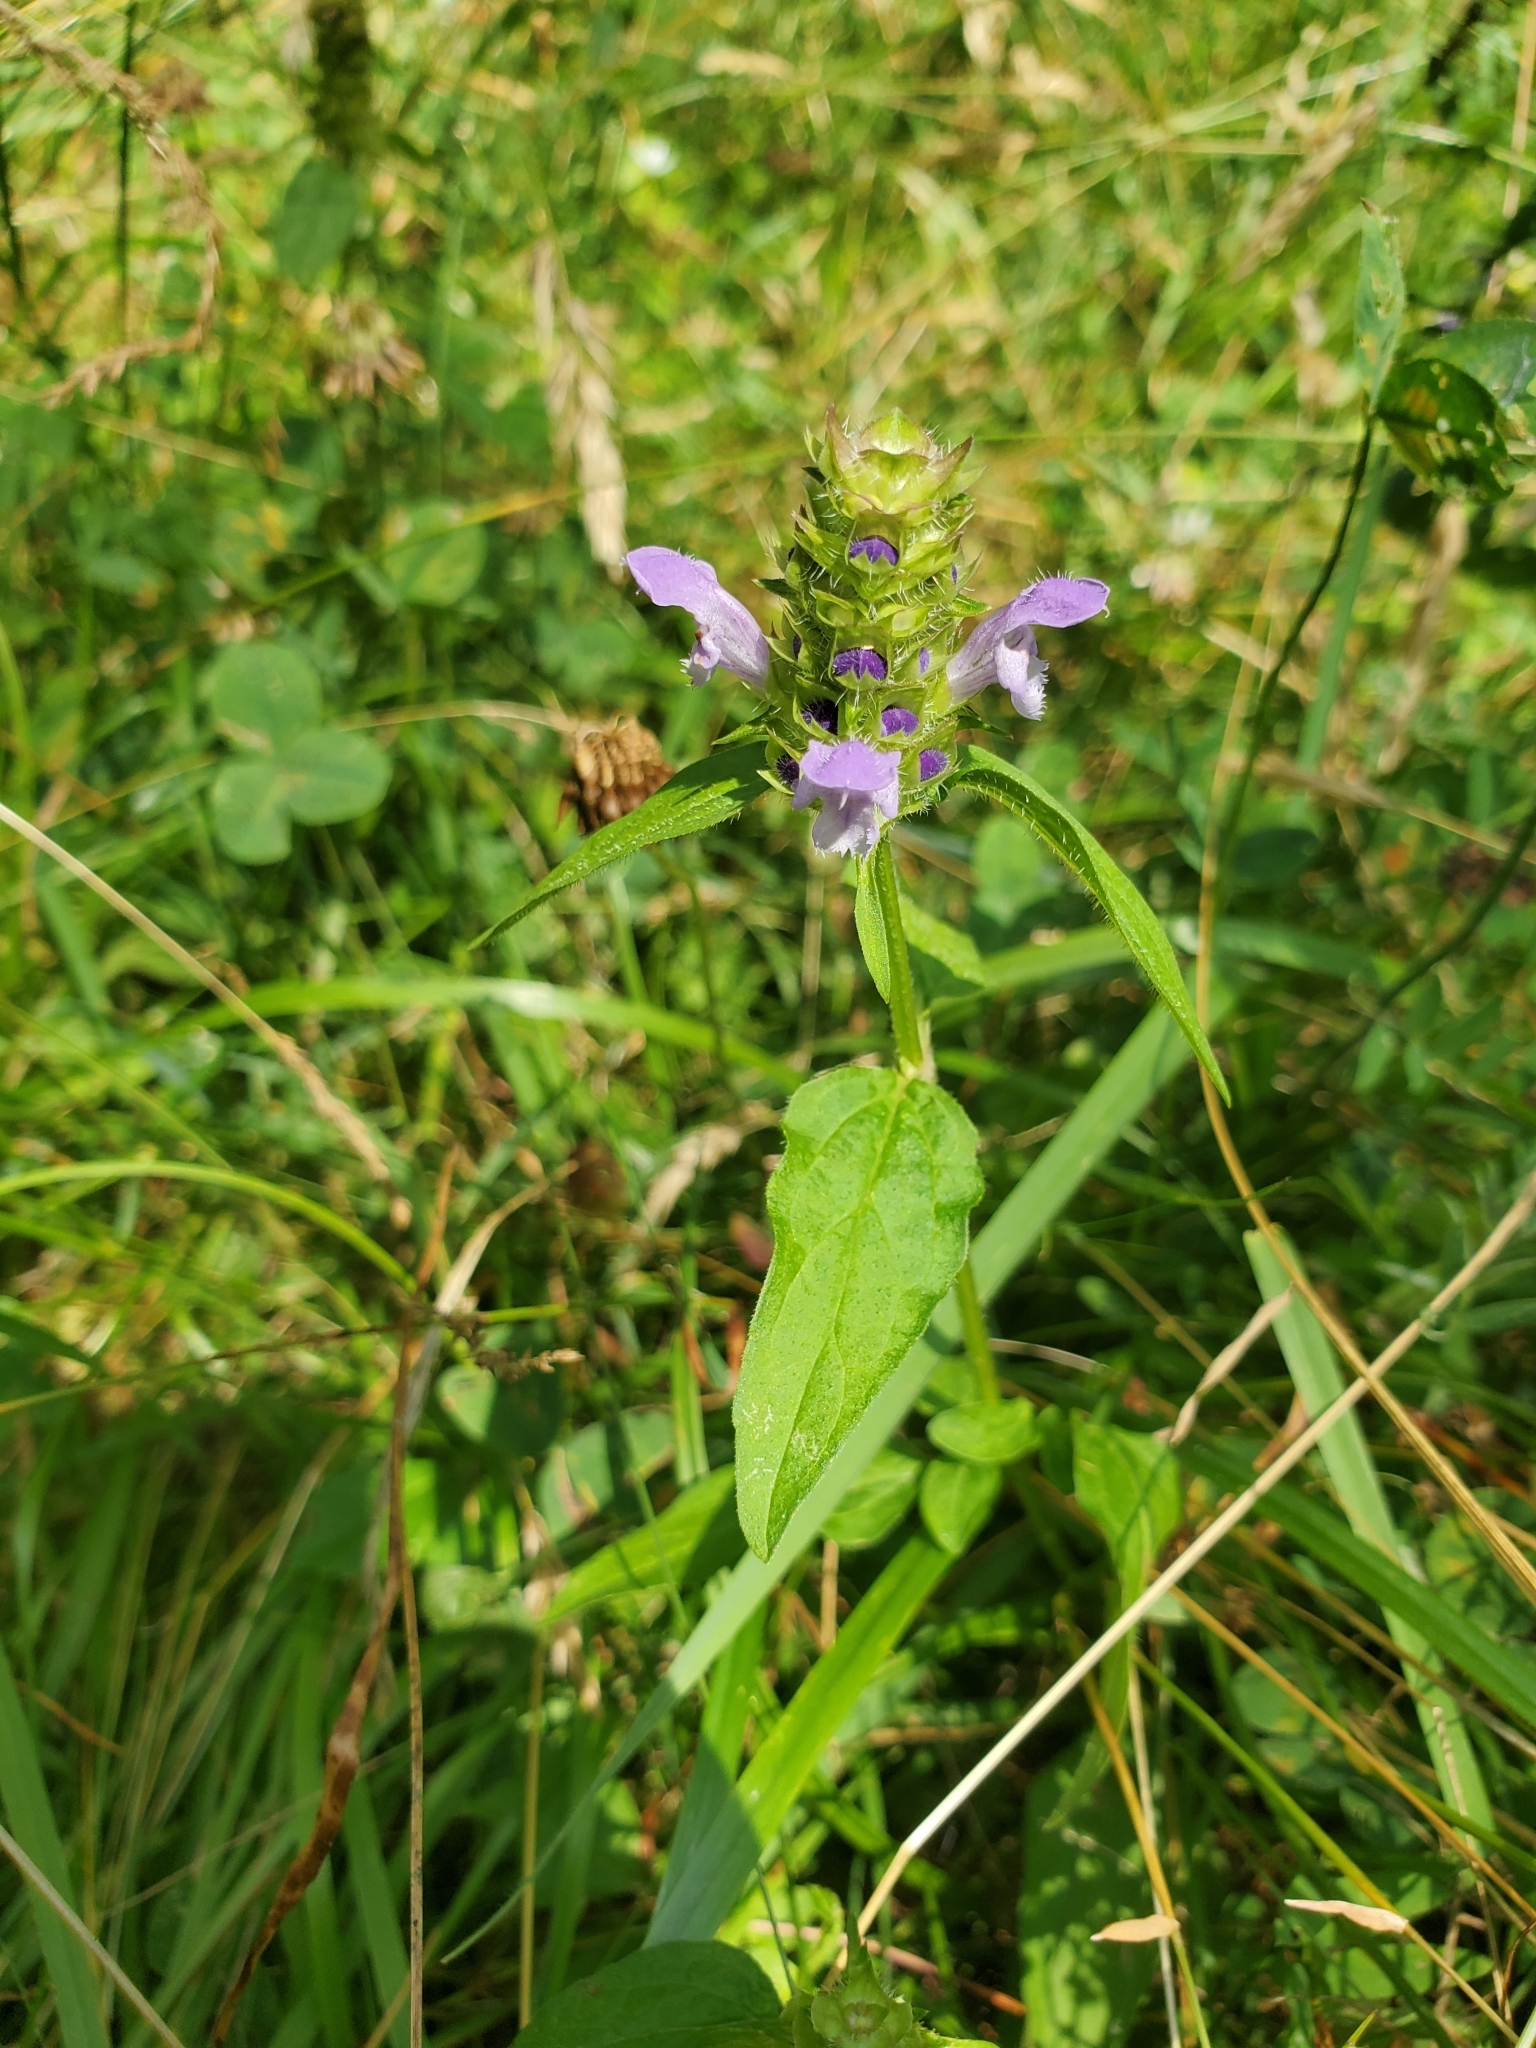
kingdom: Plantae
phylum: Tracheophyta
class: Magnoliopsida
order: Lamiales
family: Lamiaceae
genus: Prunella
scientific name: Prunella vulgaris
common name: Heal-all
